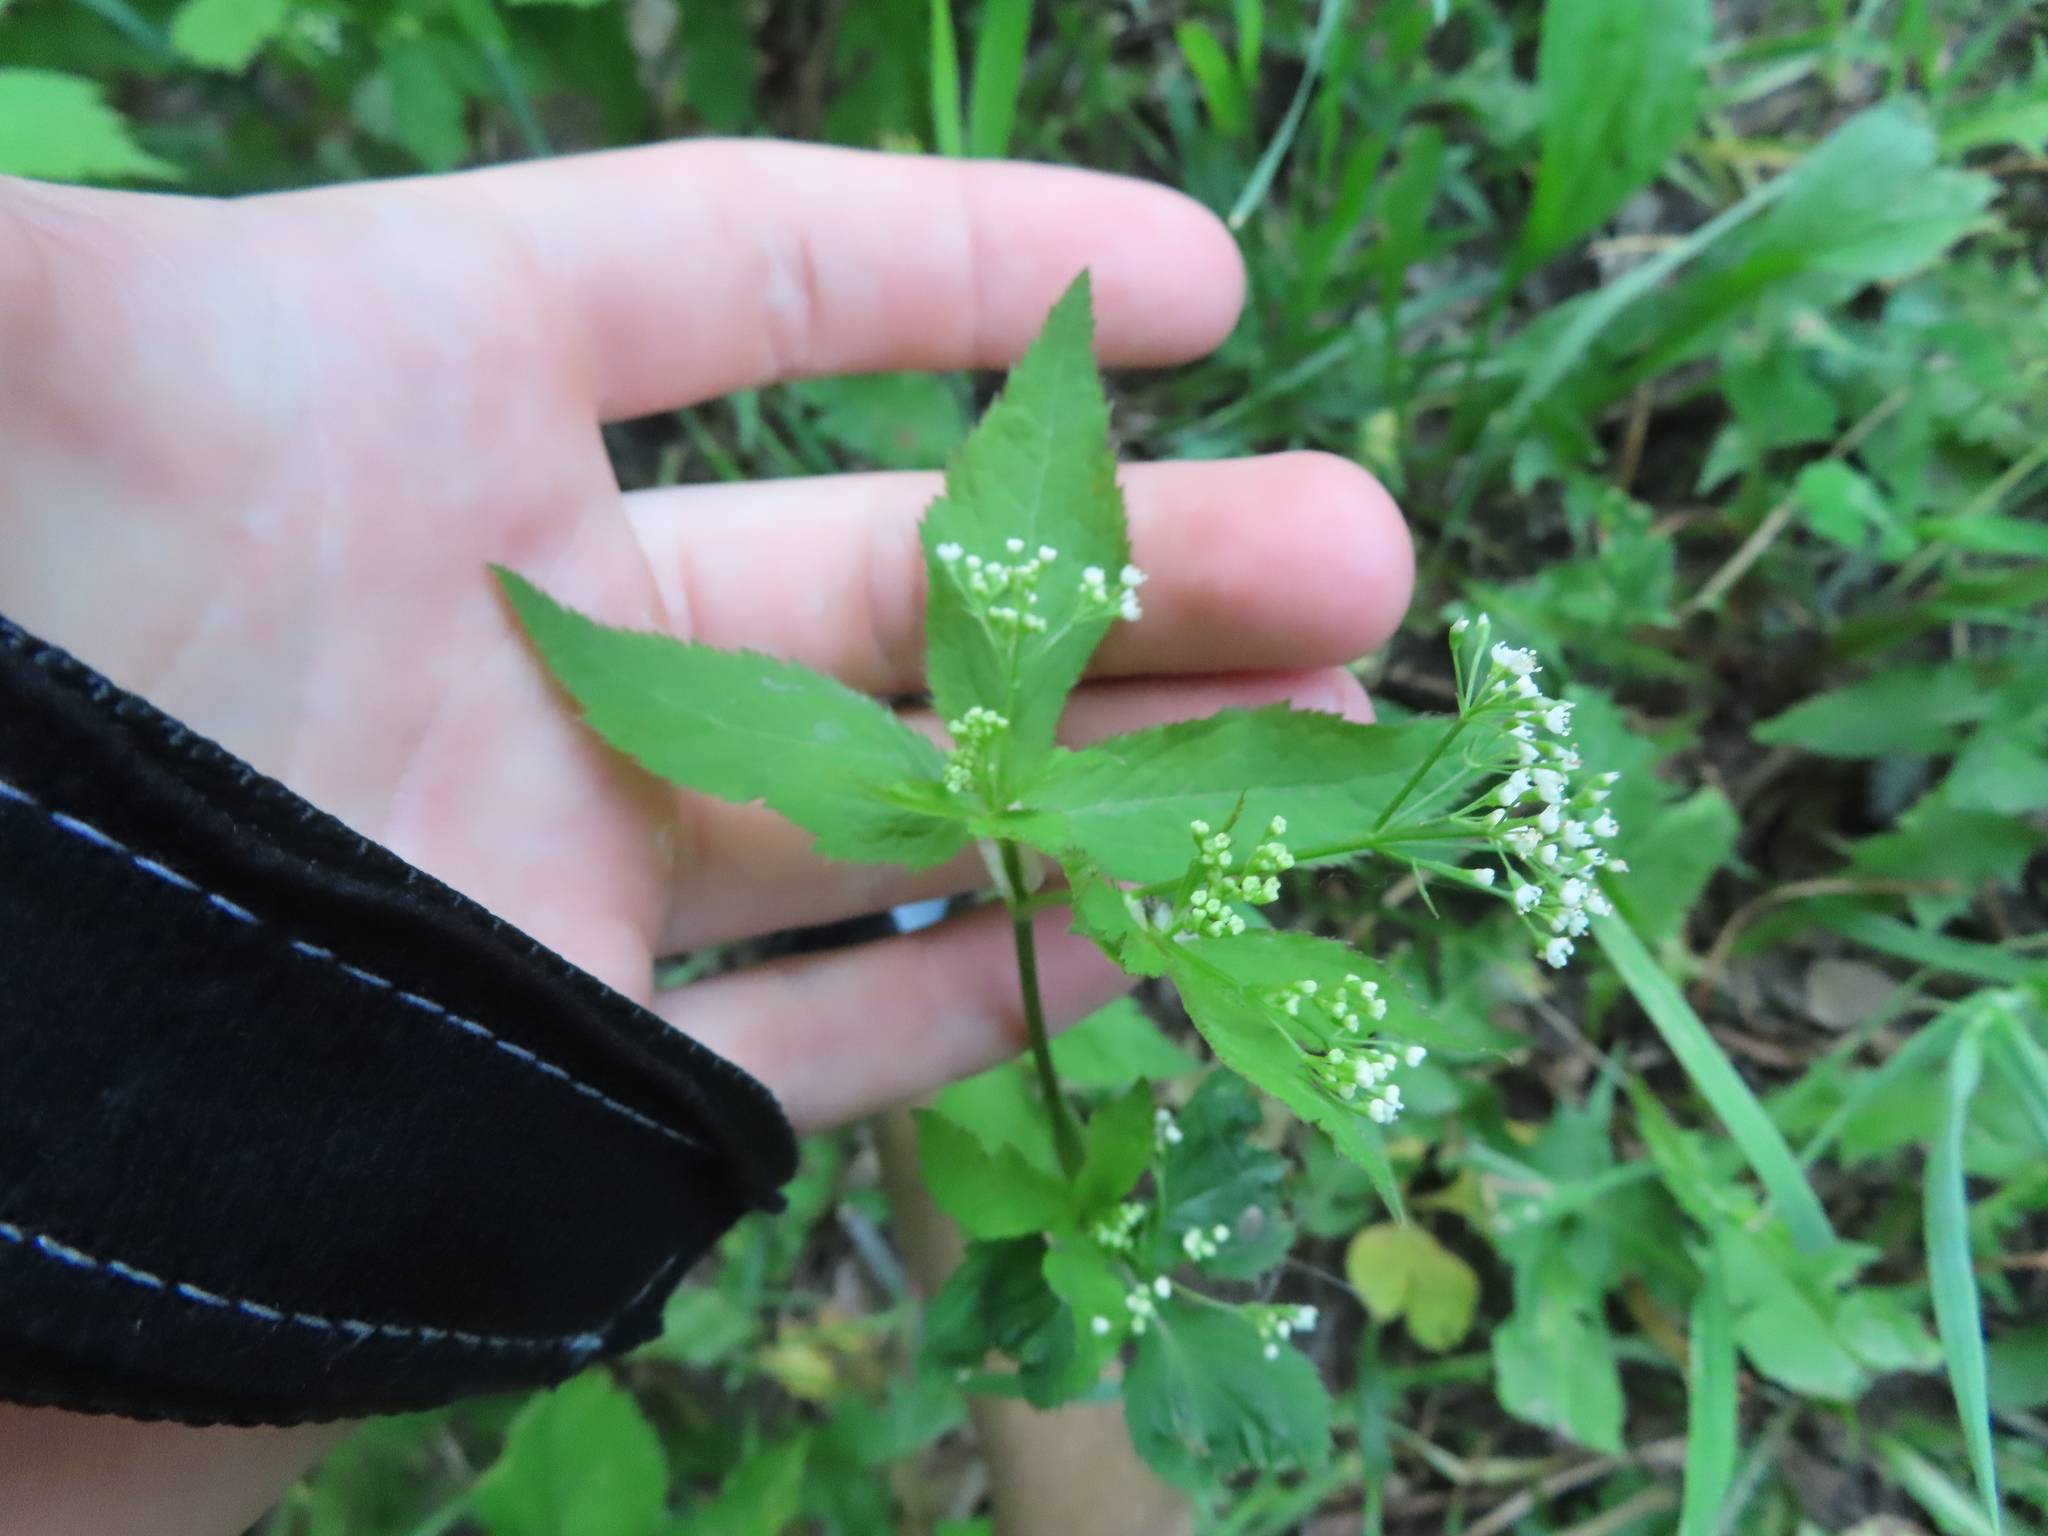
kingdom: Plantae
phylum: Tracheophyta
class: Magnoliopsida
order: Apiales
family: Apiaceae
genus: Cryptotaenia
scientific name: Cryptotaenia canadensis
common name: Honewort
